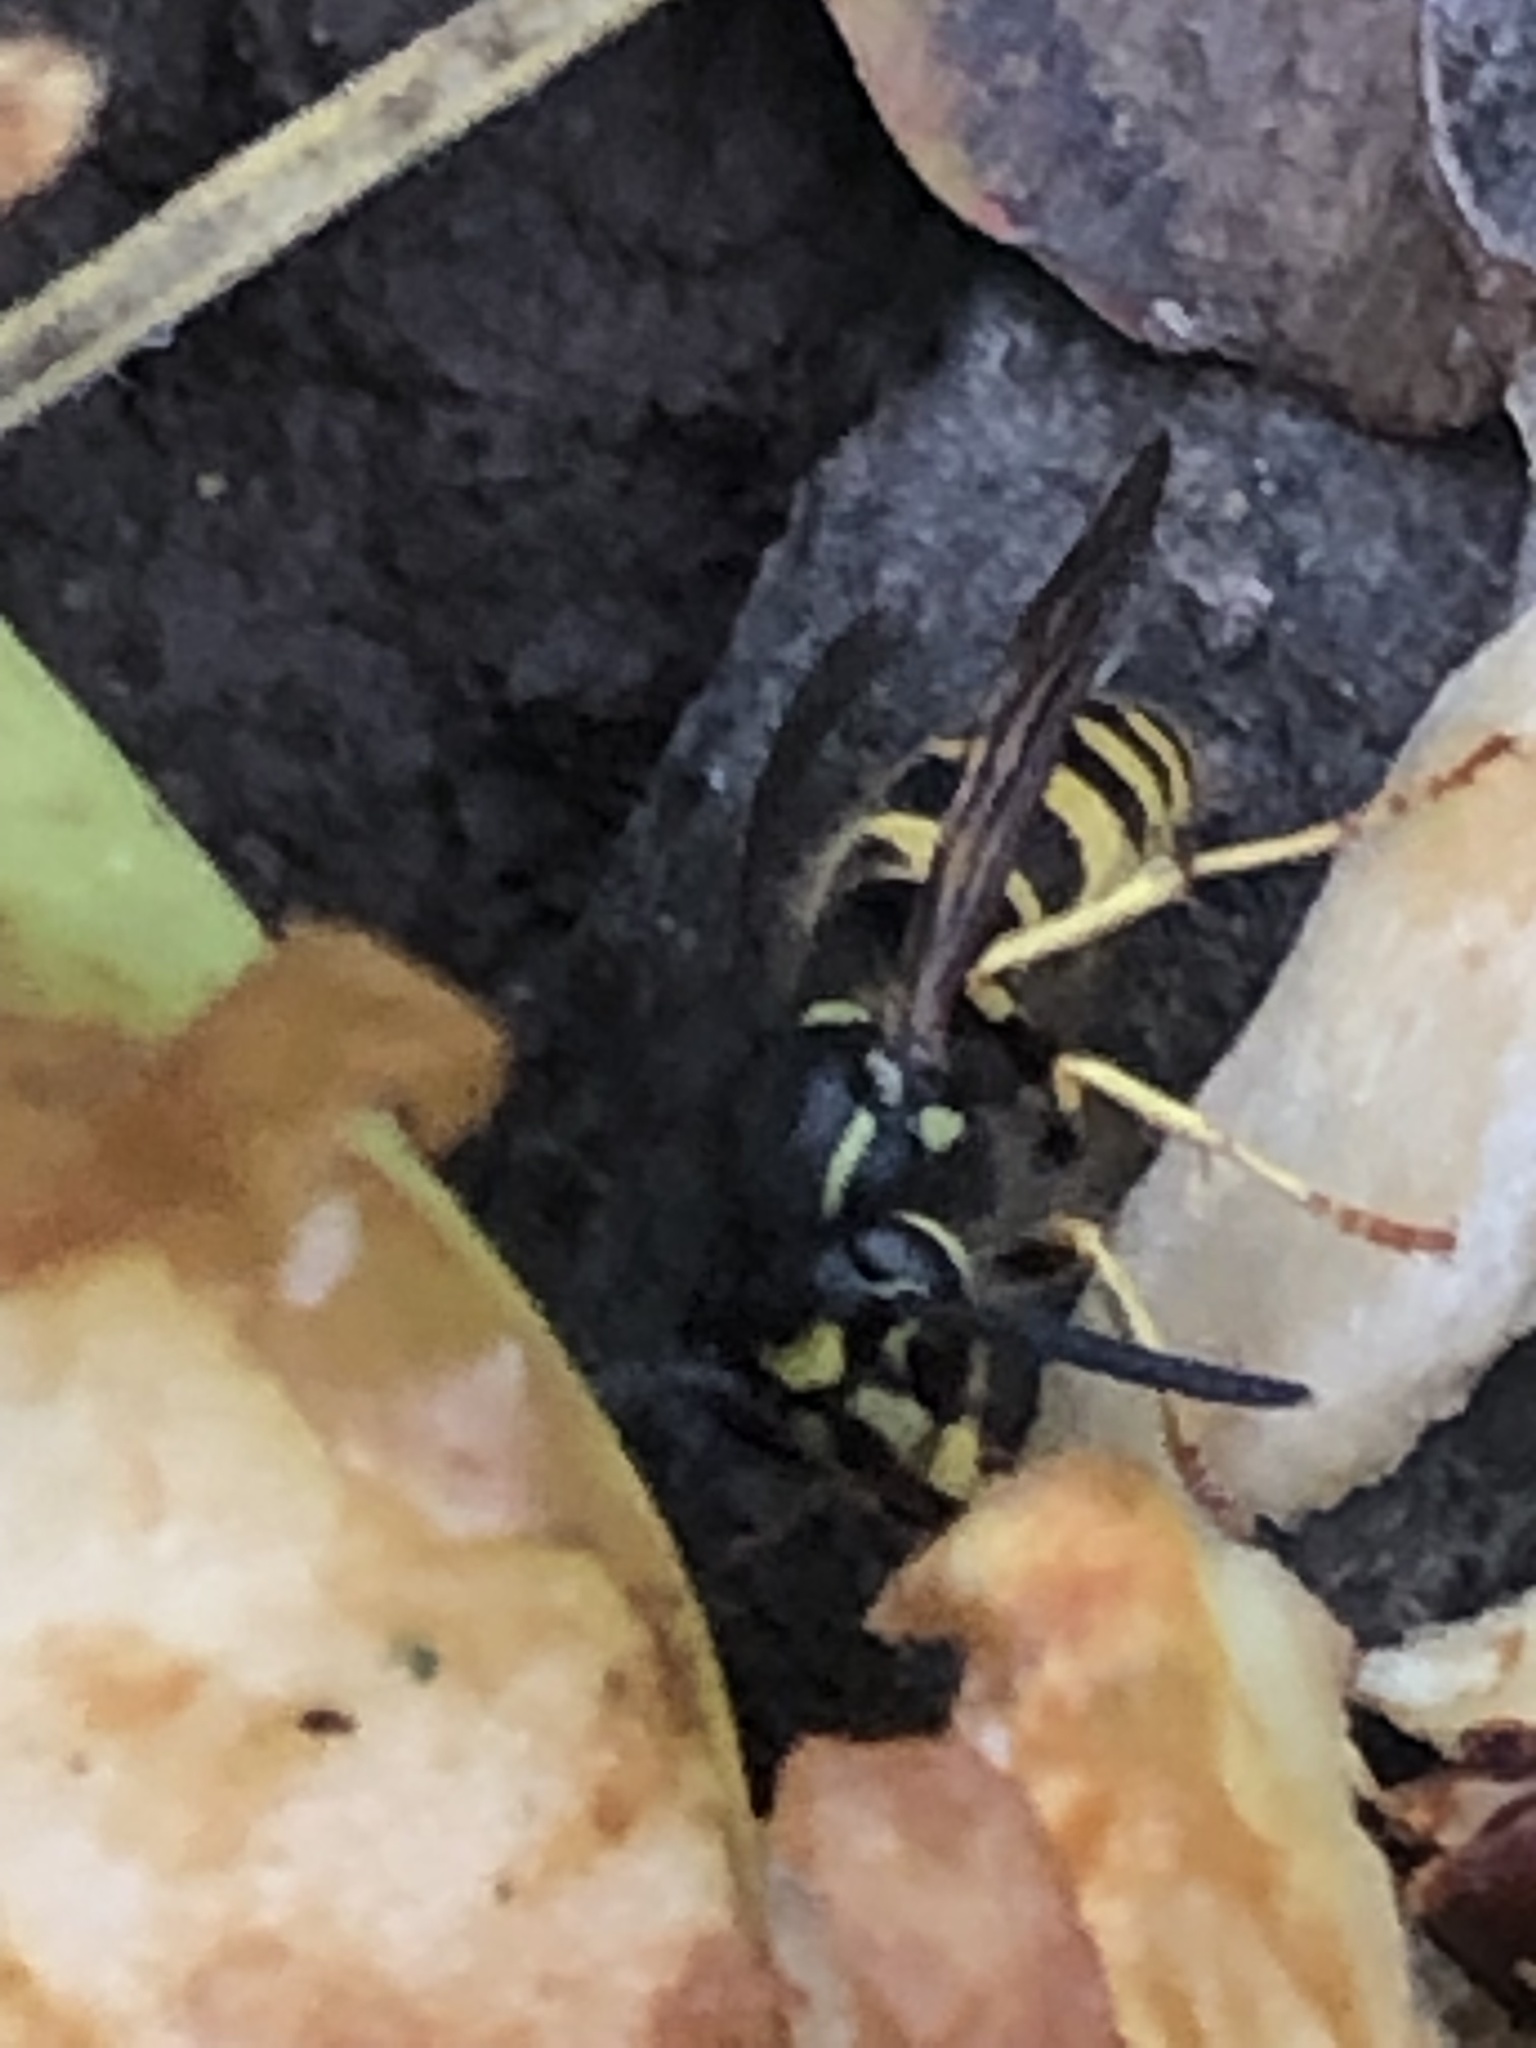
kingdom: Animalia
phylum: Arthropoda
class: Insecta
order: Hymenoptera
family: Vespidae
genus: Vespula
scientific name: Vespula alascensis
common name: Alaska yellowjacket
